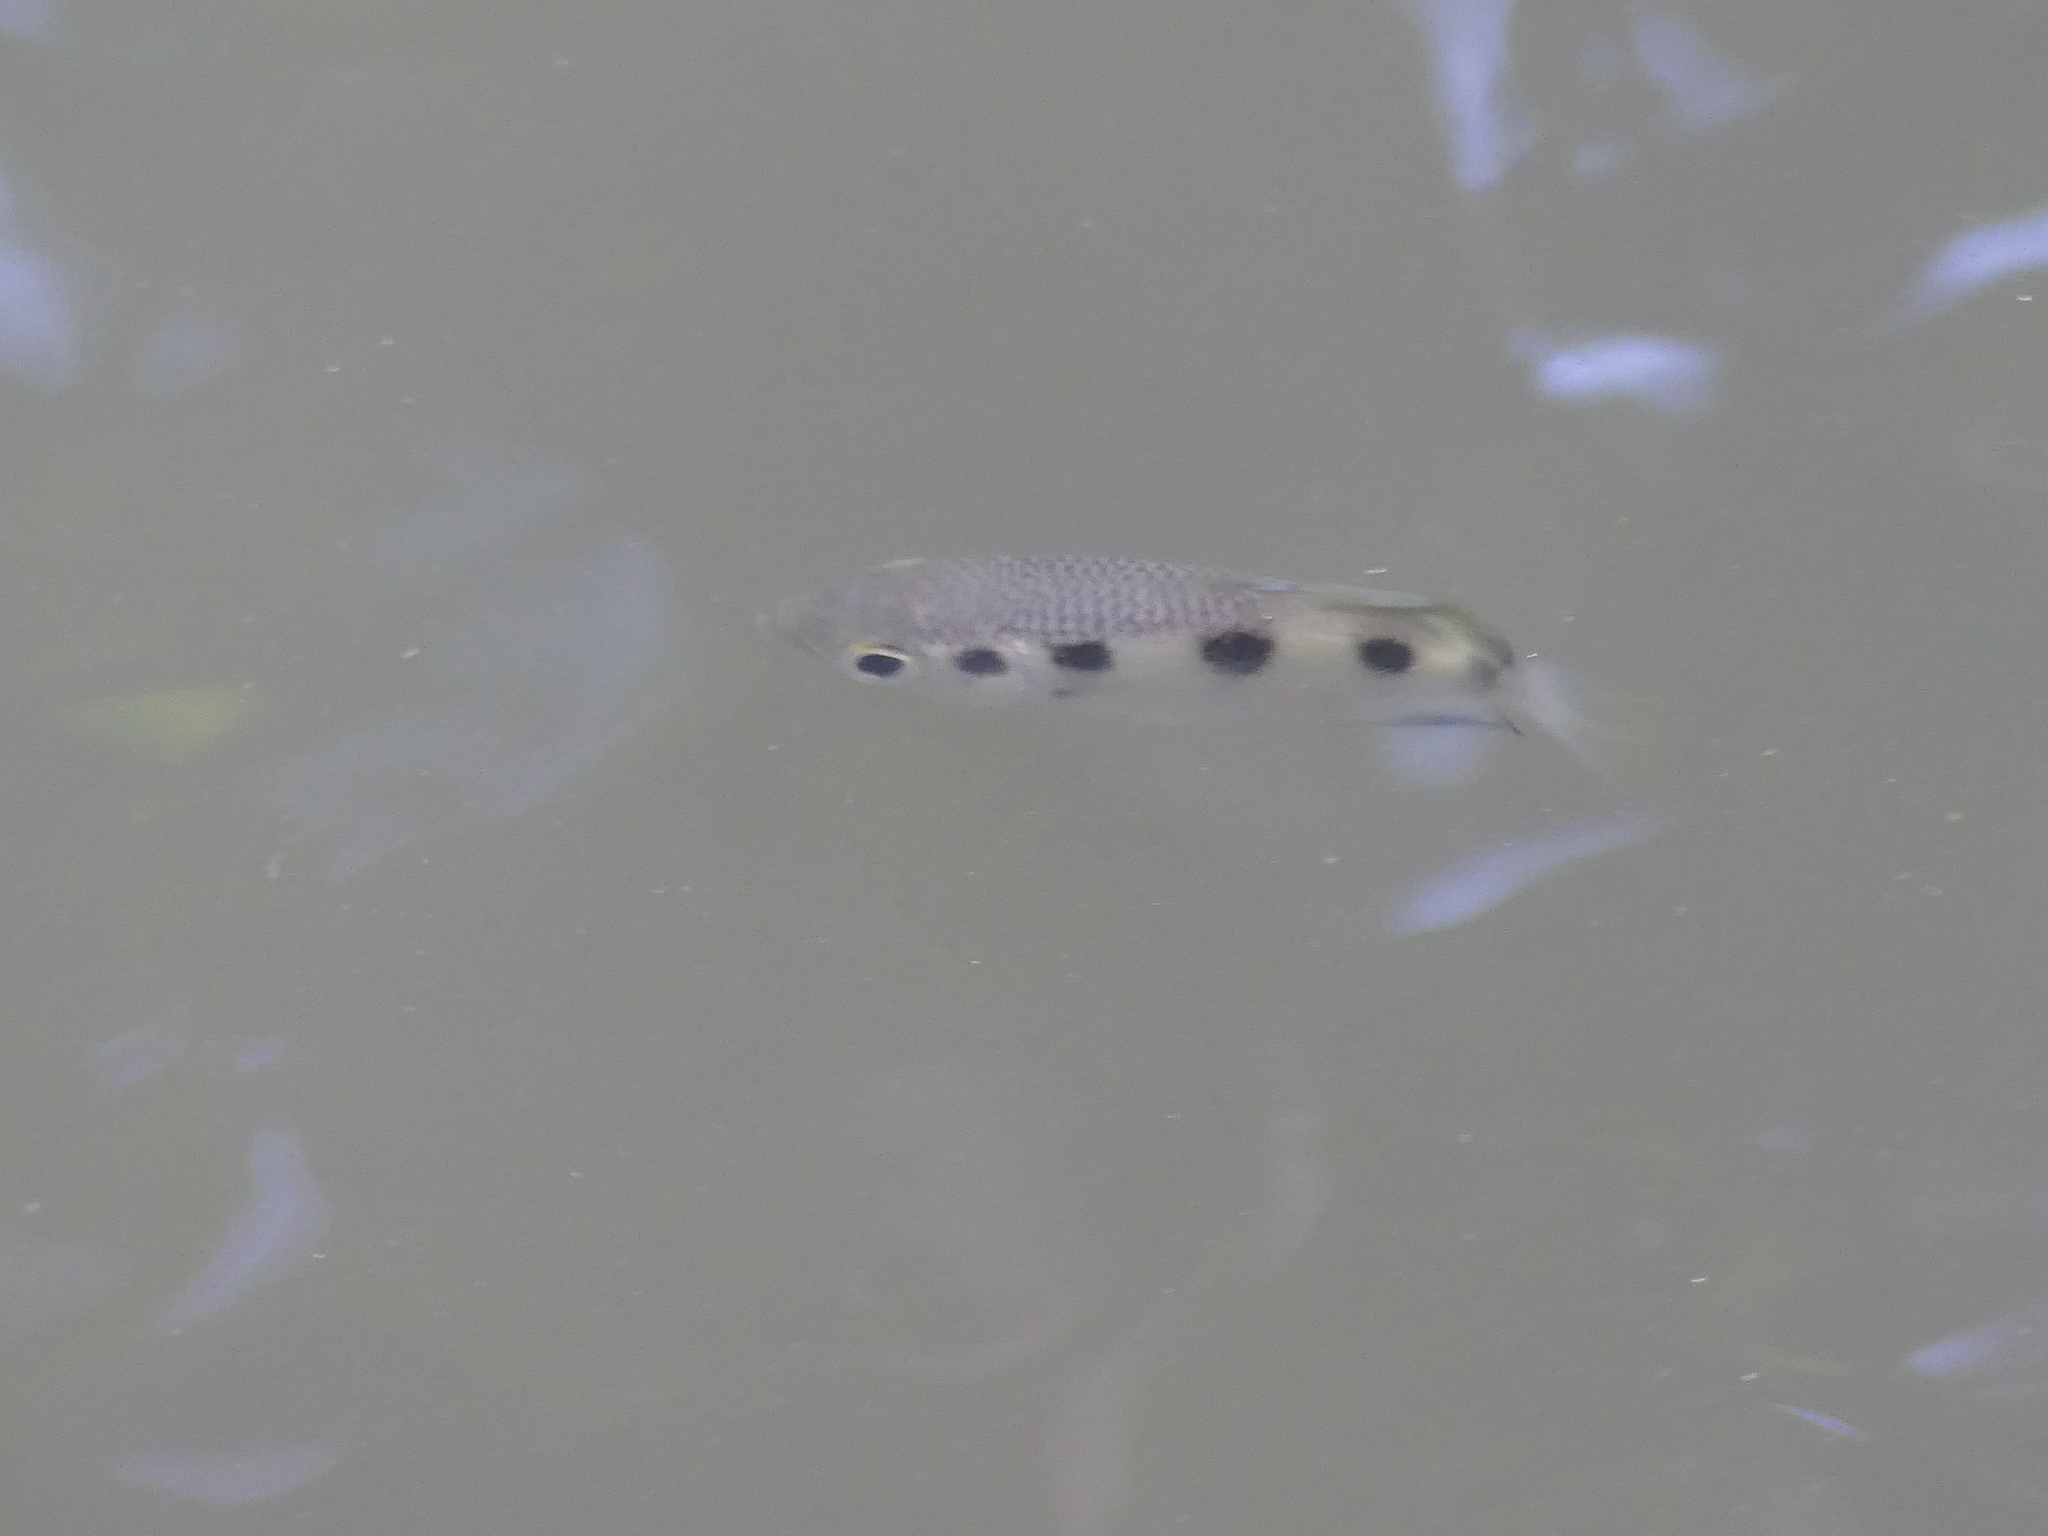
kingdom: Animalia
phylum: Chordata
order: Perciformes
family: Toxotidae
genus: Toxotes
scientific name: Toxotes jaculatrix
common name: Banded archerfish
